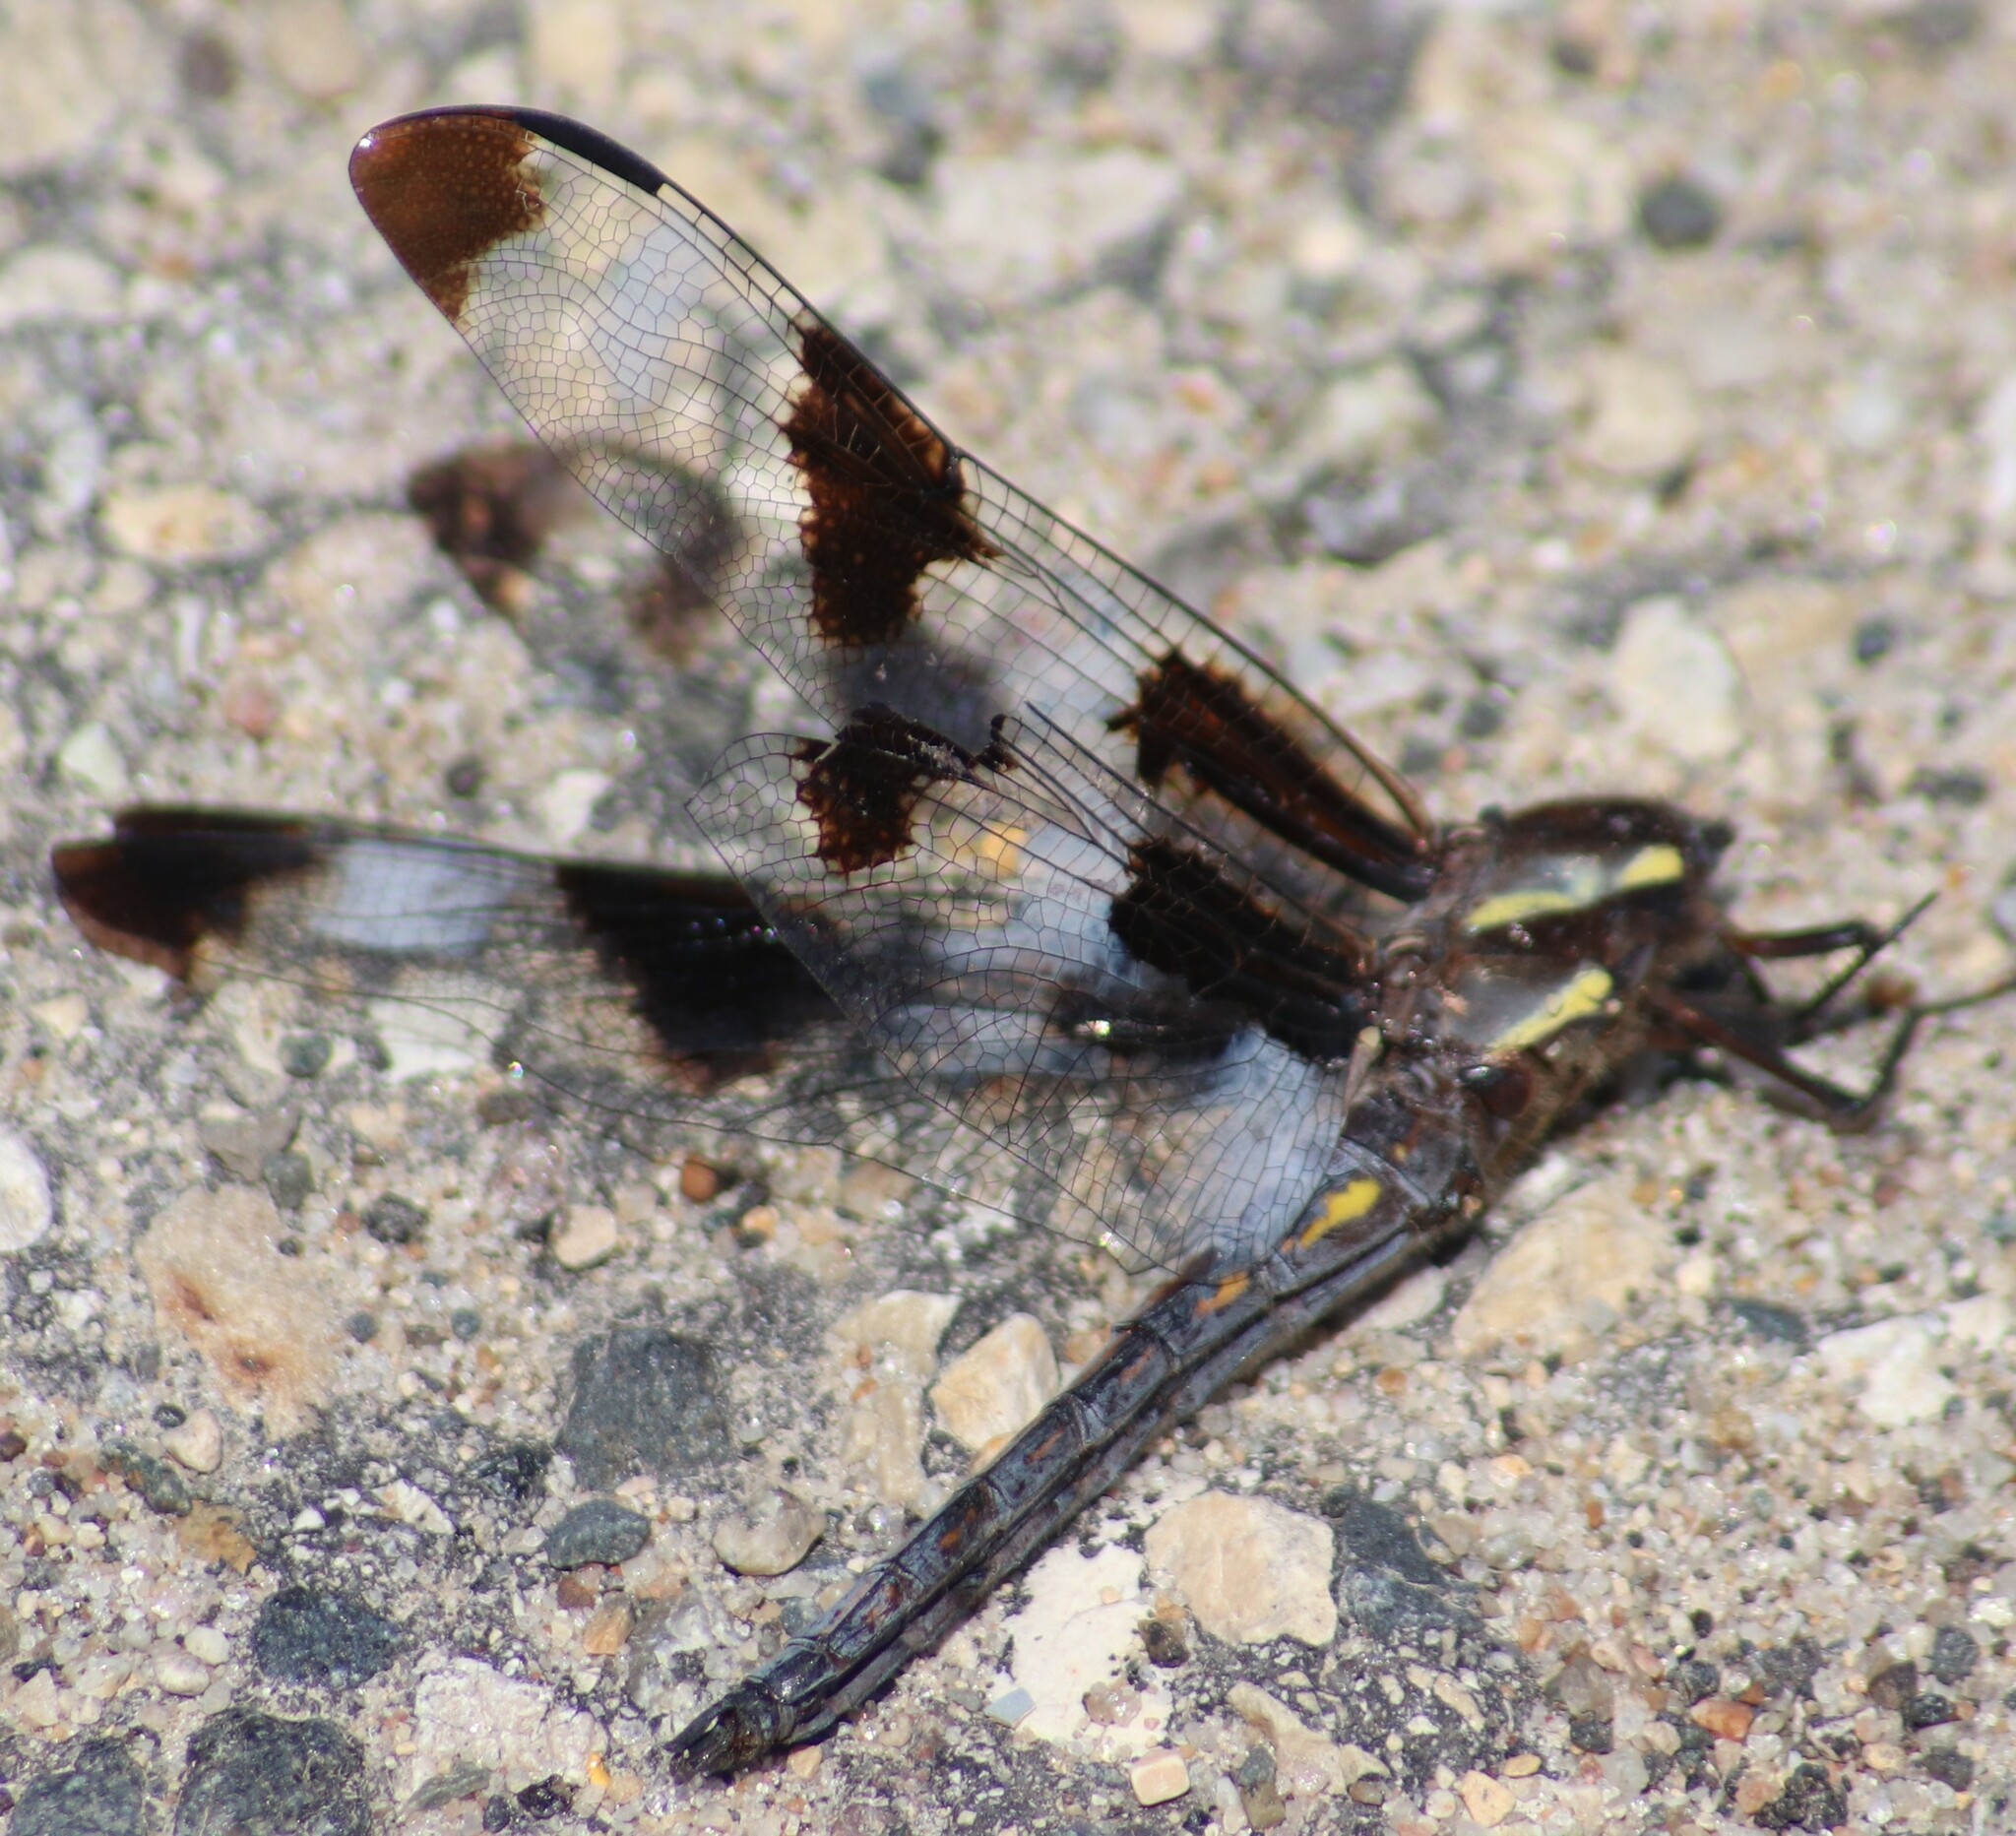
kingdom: Animalia
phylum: Arthropoda
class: Insecta
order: Odonata
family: Libellulidae
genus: Libellula
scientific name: Libellula pulchella
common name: Twelve-spotted skimmer
